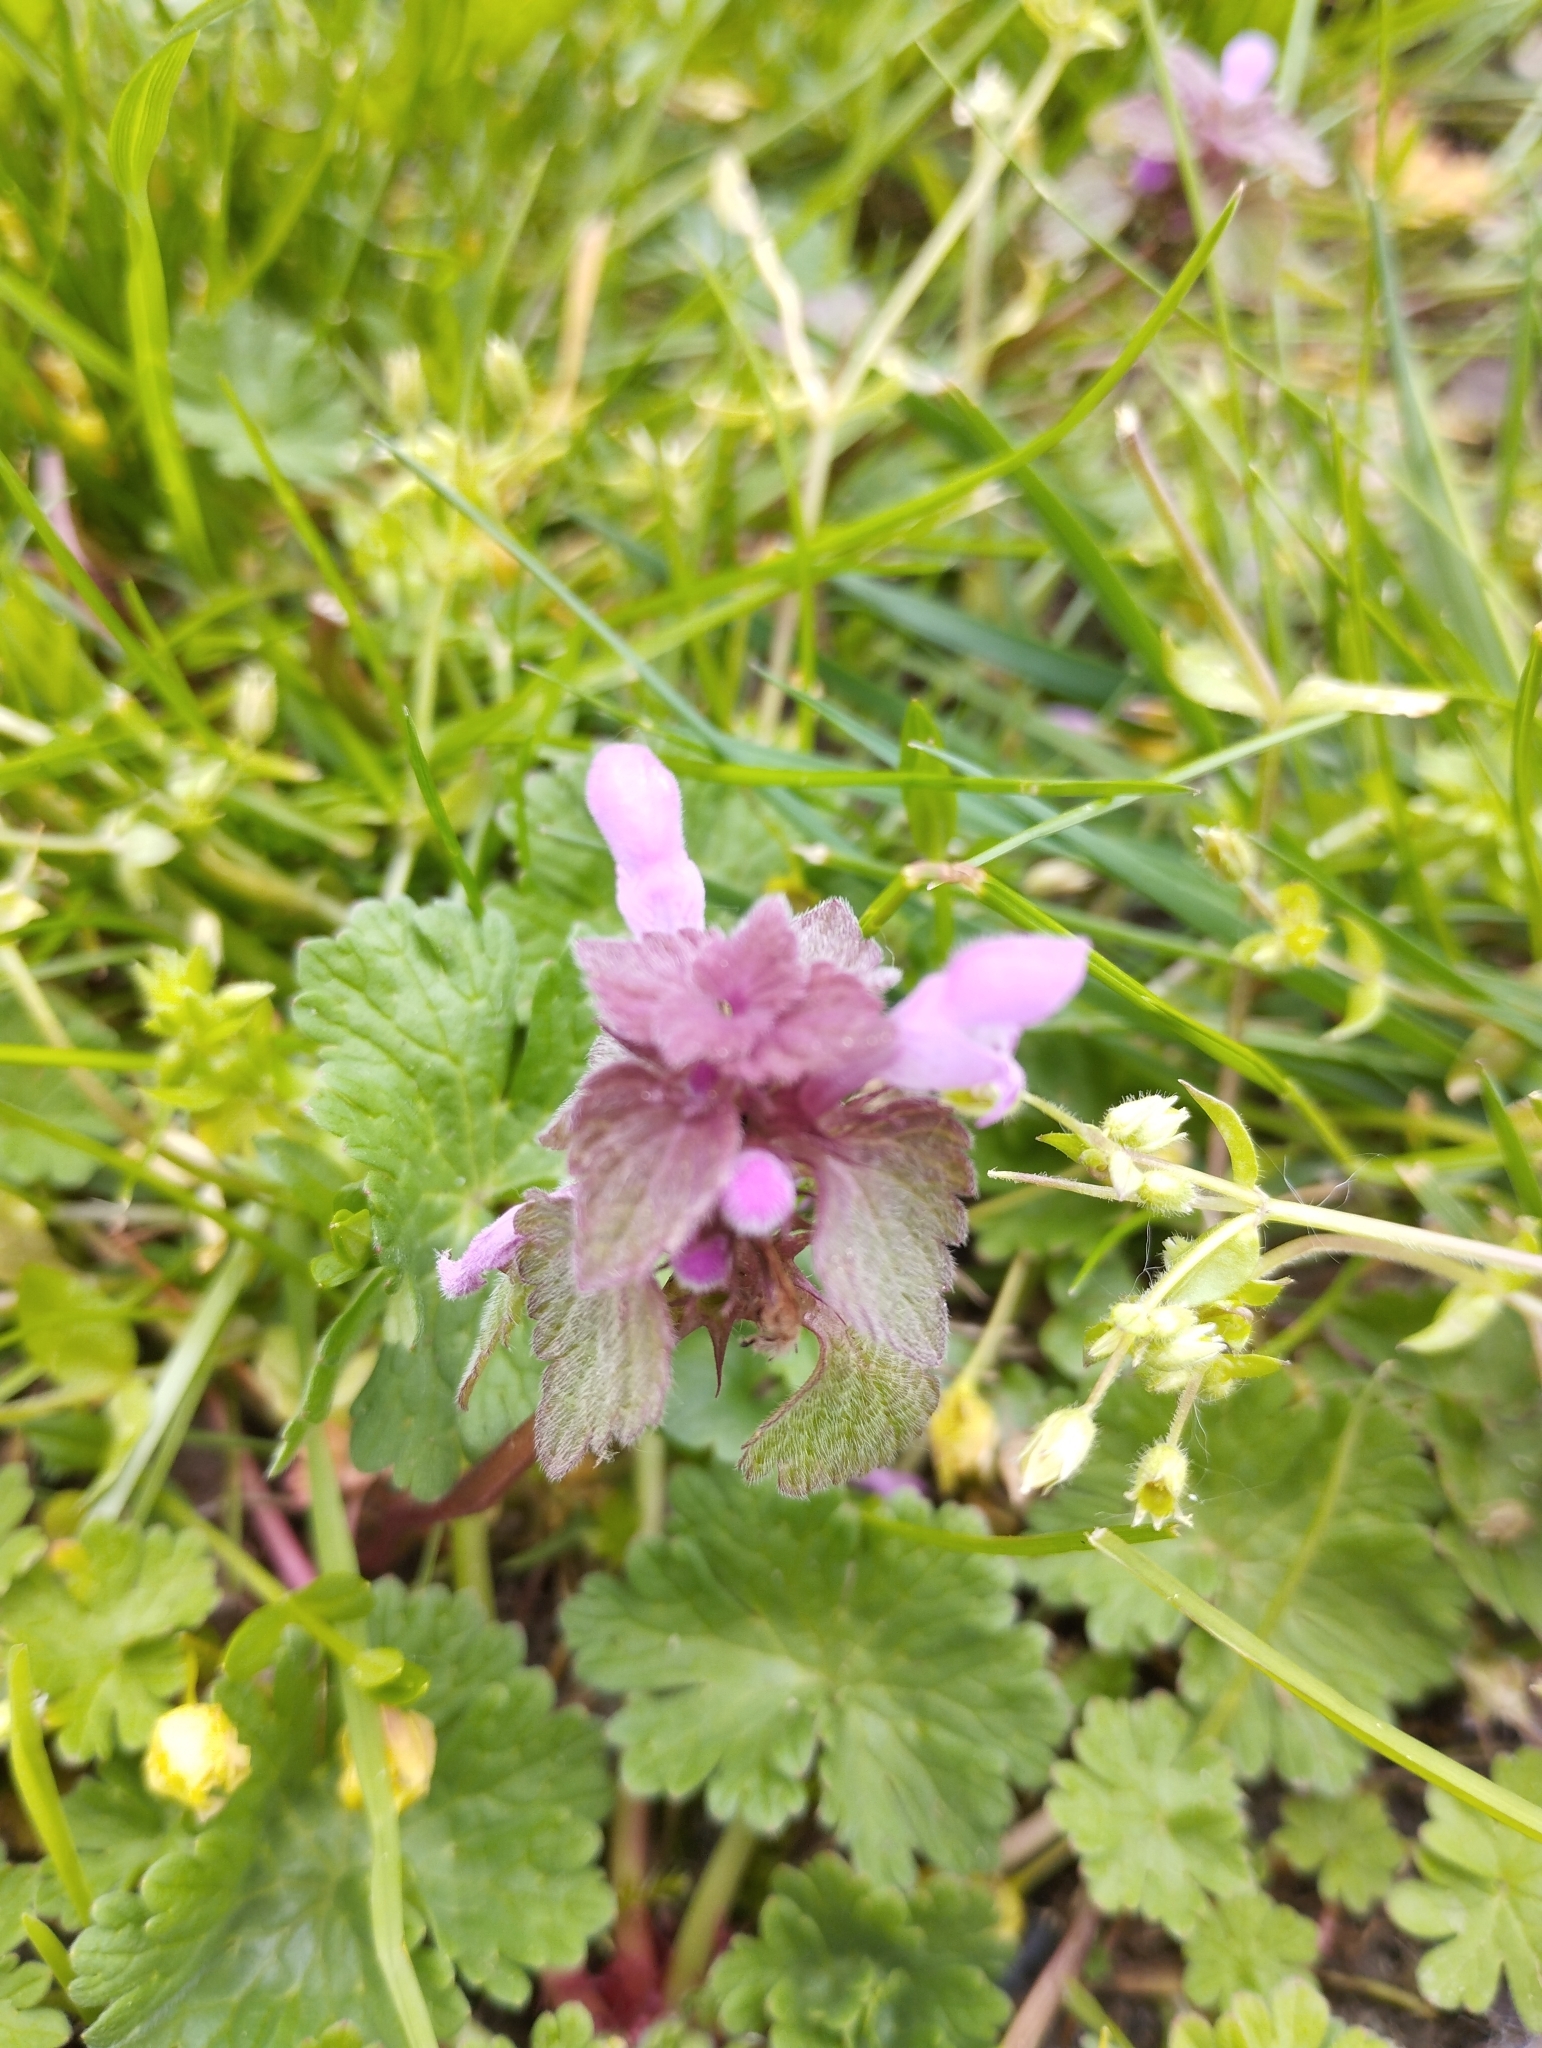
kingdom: Plantae
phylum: Tracheophyta
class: Magnoliopsida
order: Lamiales
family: Lamiaceae
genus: Lamium
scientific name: Lamium purpureum
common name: Red dead-nettle
